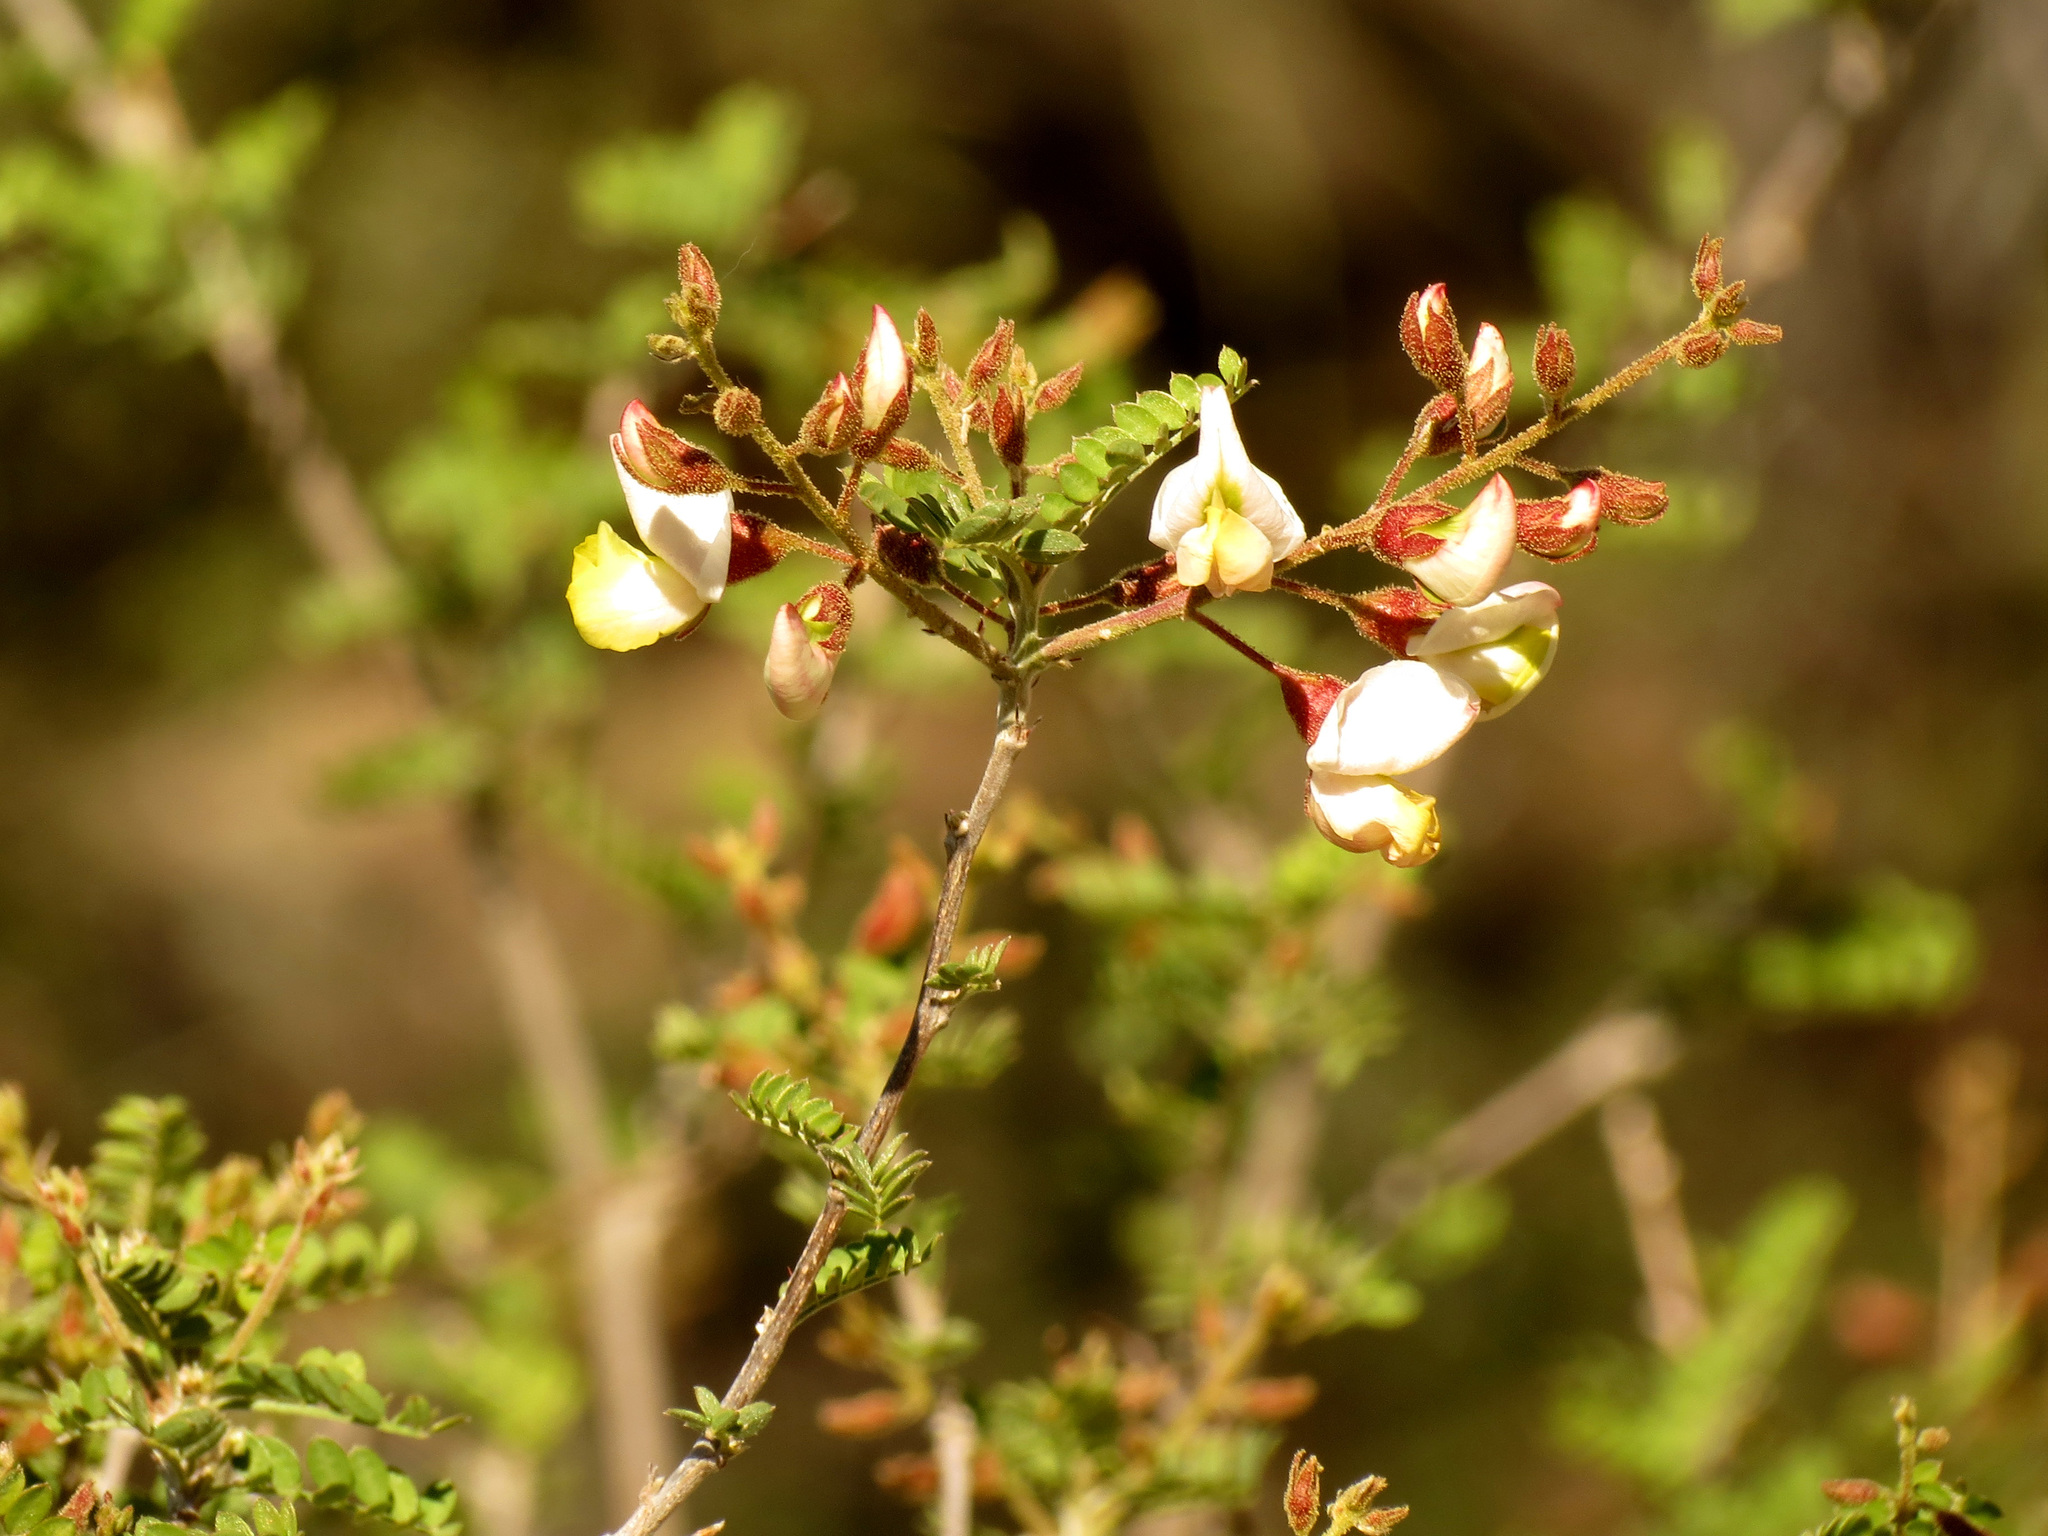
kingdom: Plantae
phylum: Tracheophyta
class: Magnoliopsida
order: Fabales
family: Fabaceae
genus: Coursetia
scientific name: Coursetia glandulosa
